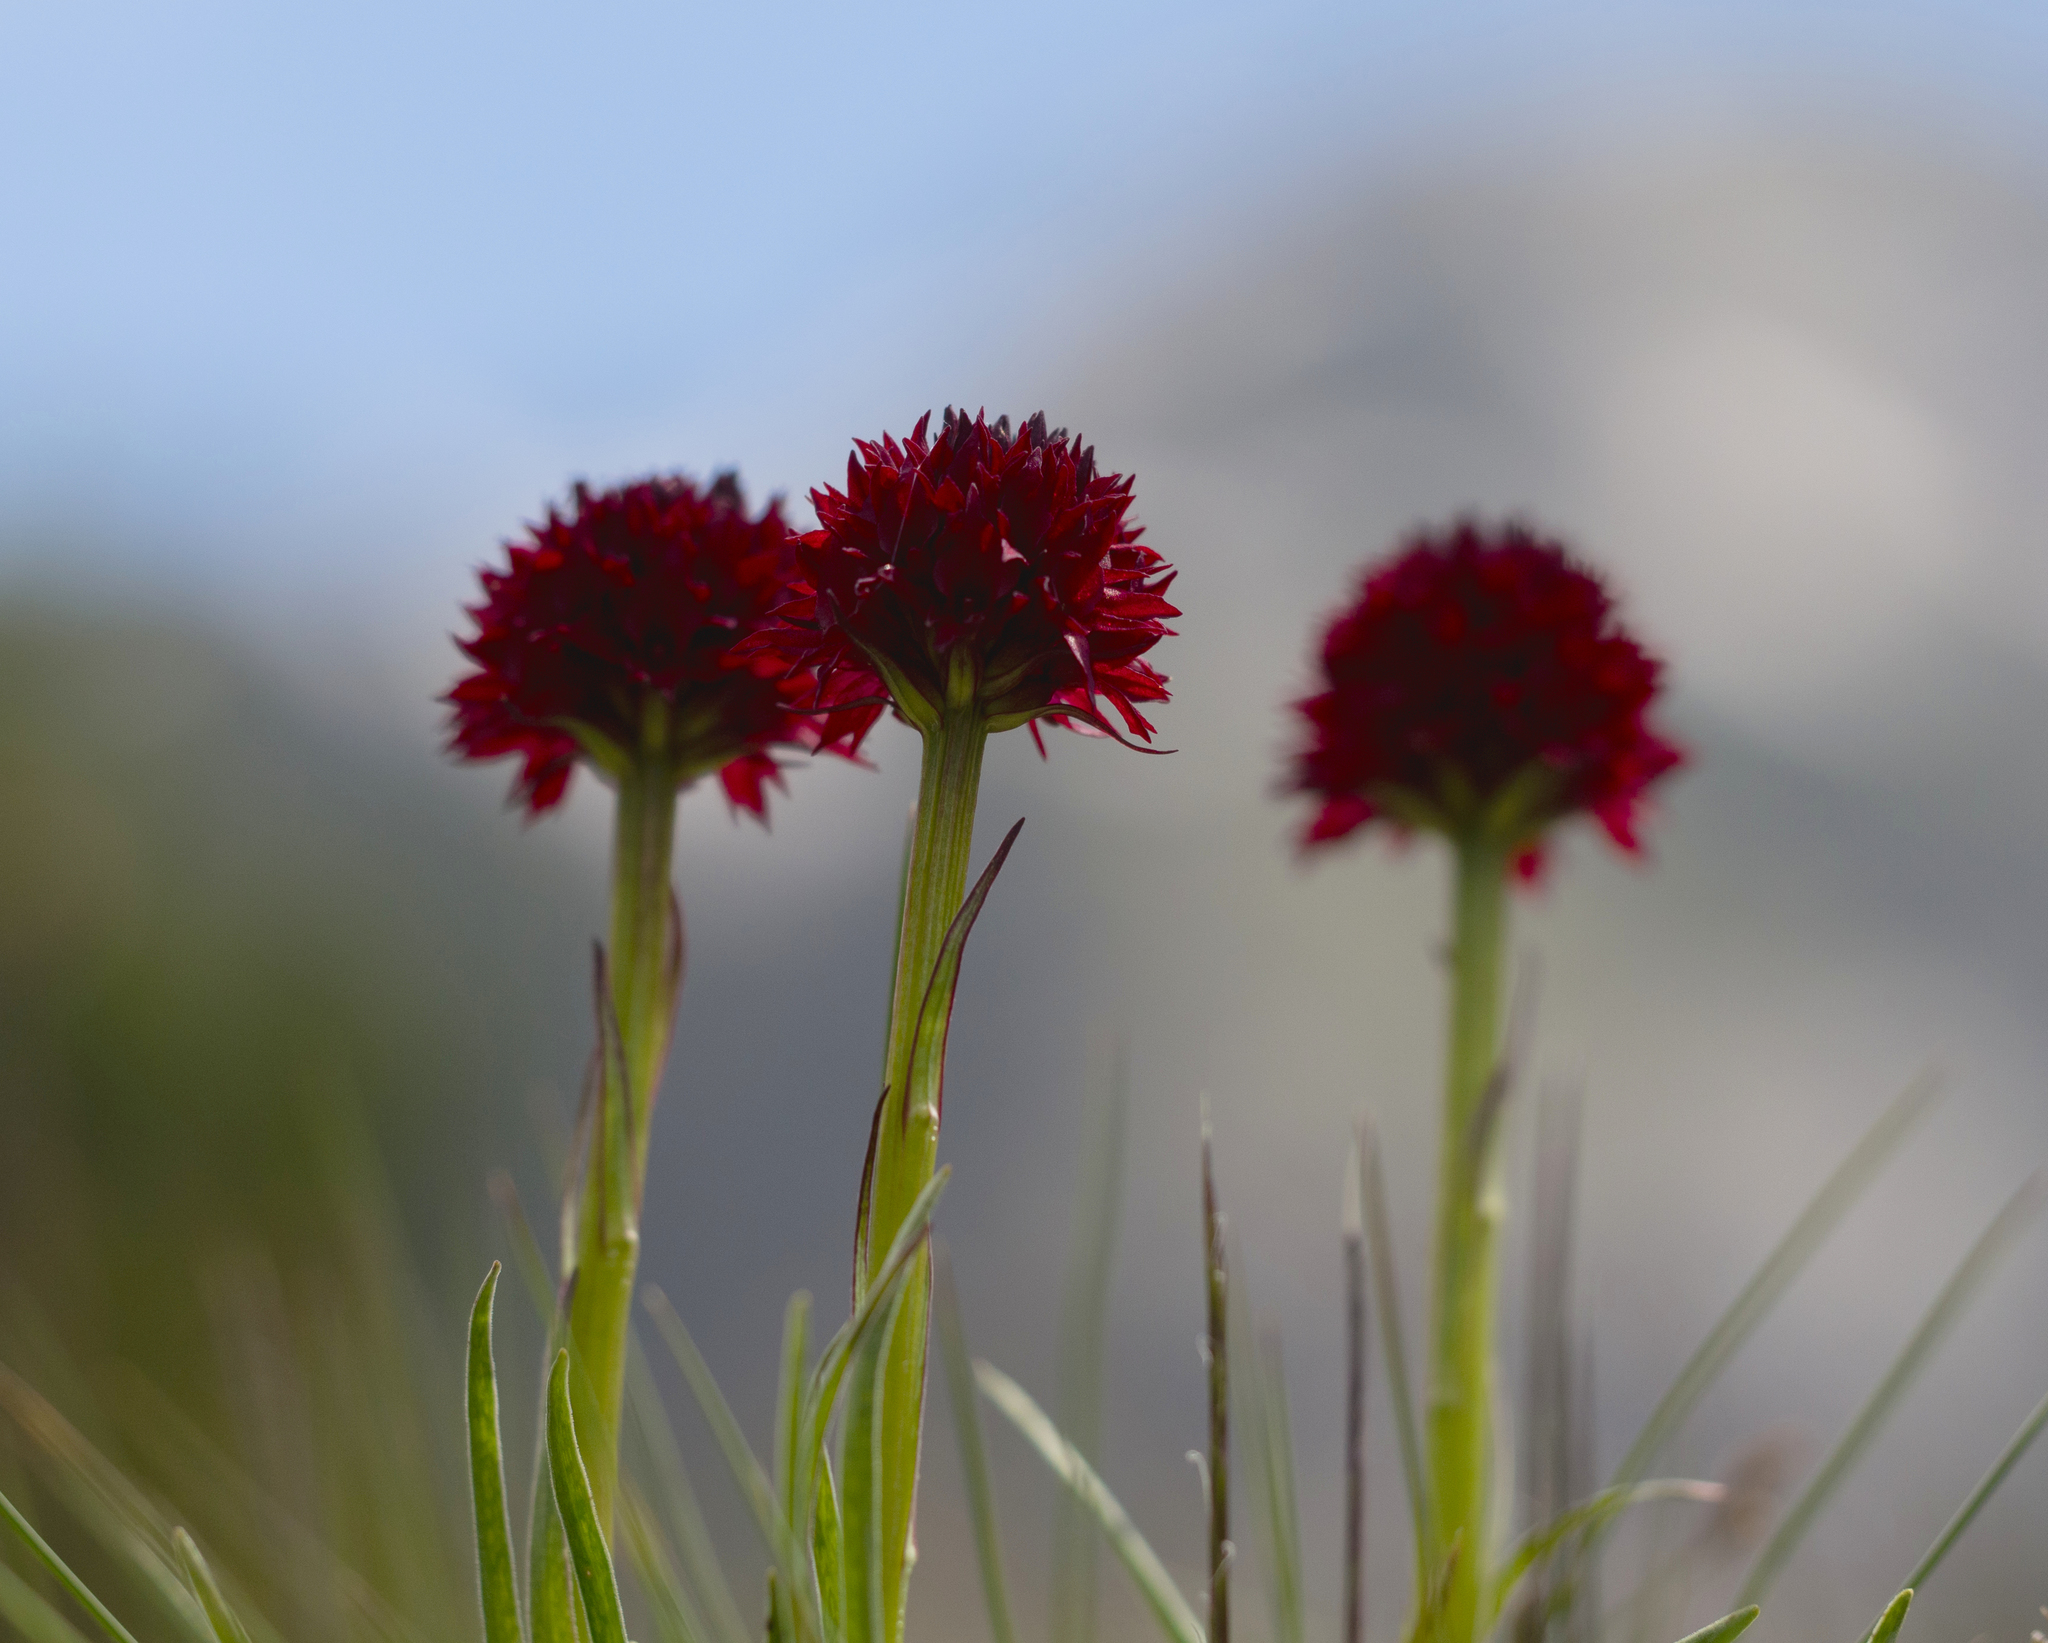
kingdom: Plantae
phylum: Tracheophyta
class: Liliopsida
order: Asparagales
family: Orchidaceae
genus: Gymnadenia
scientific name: Gymnadenia rhellicani
